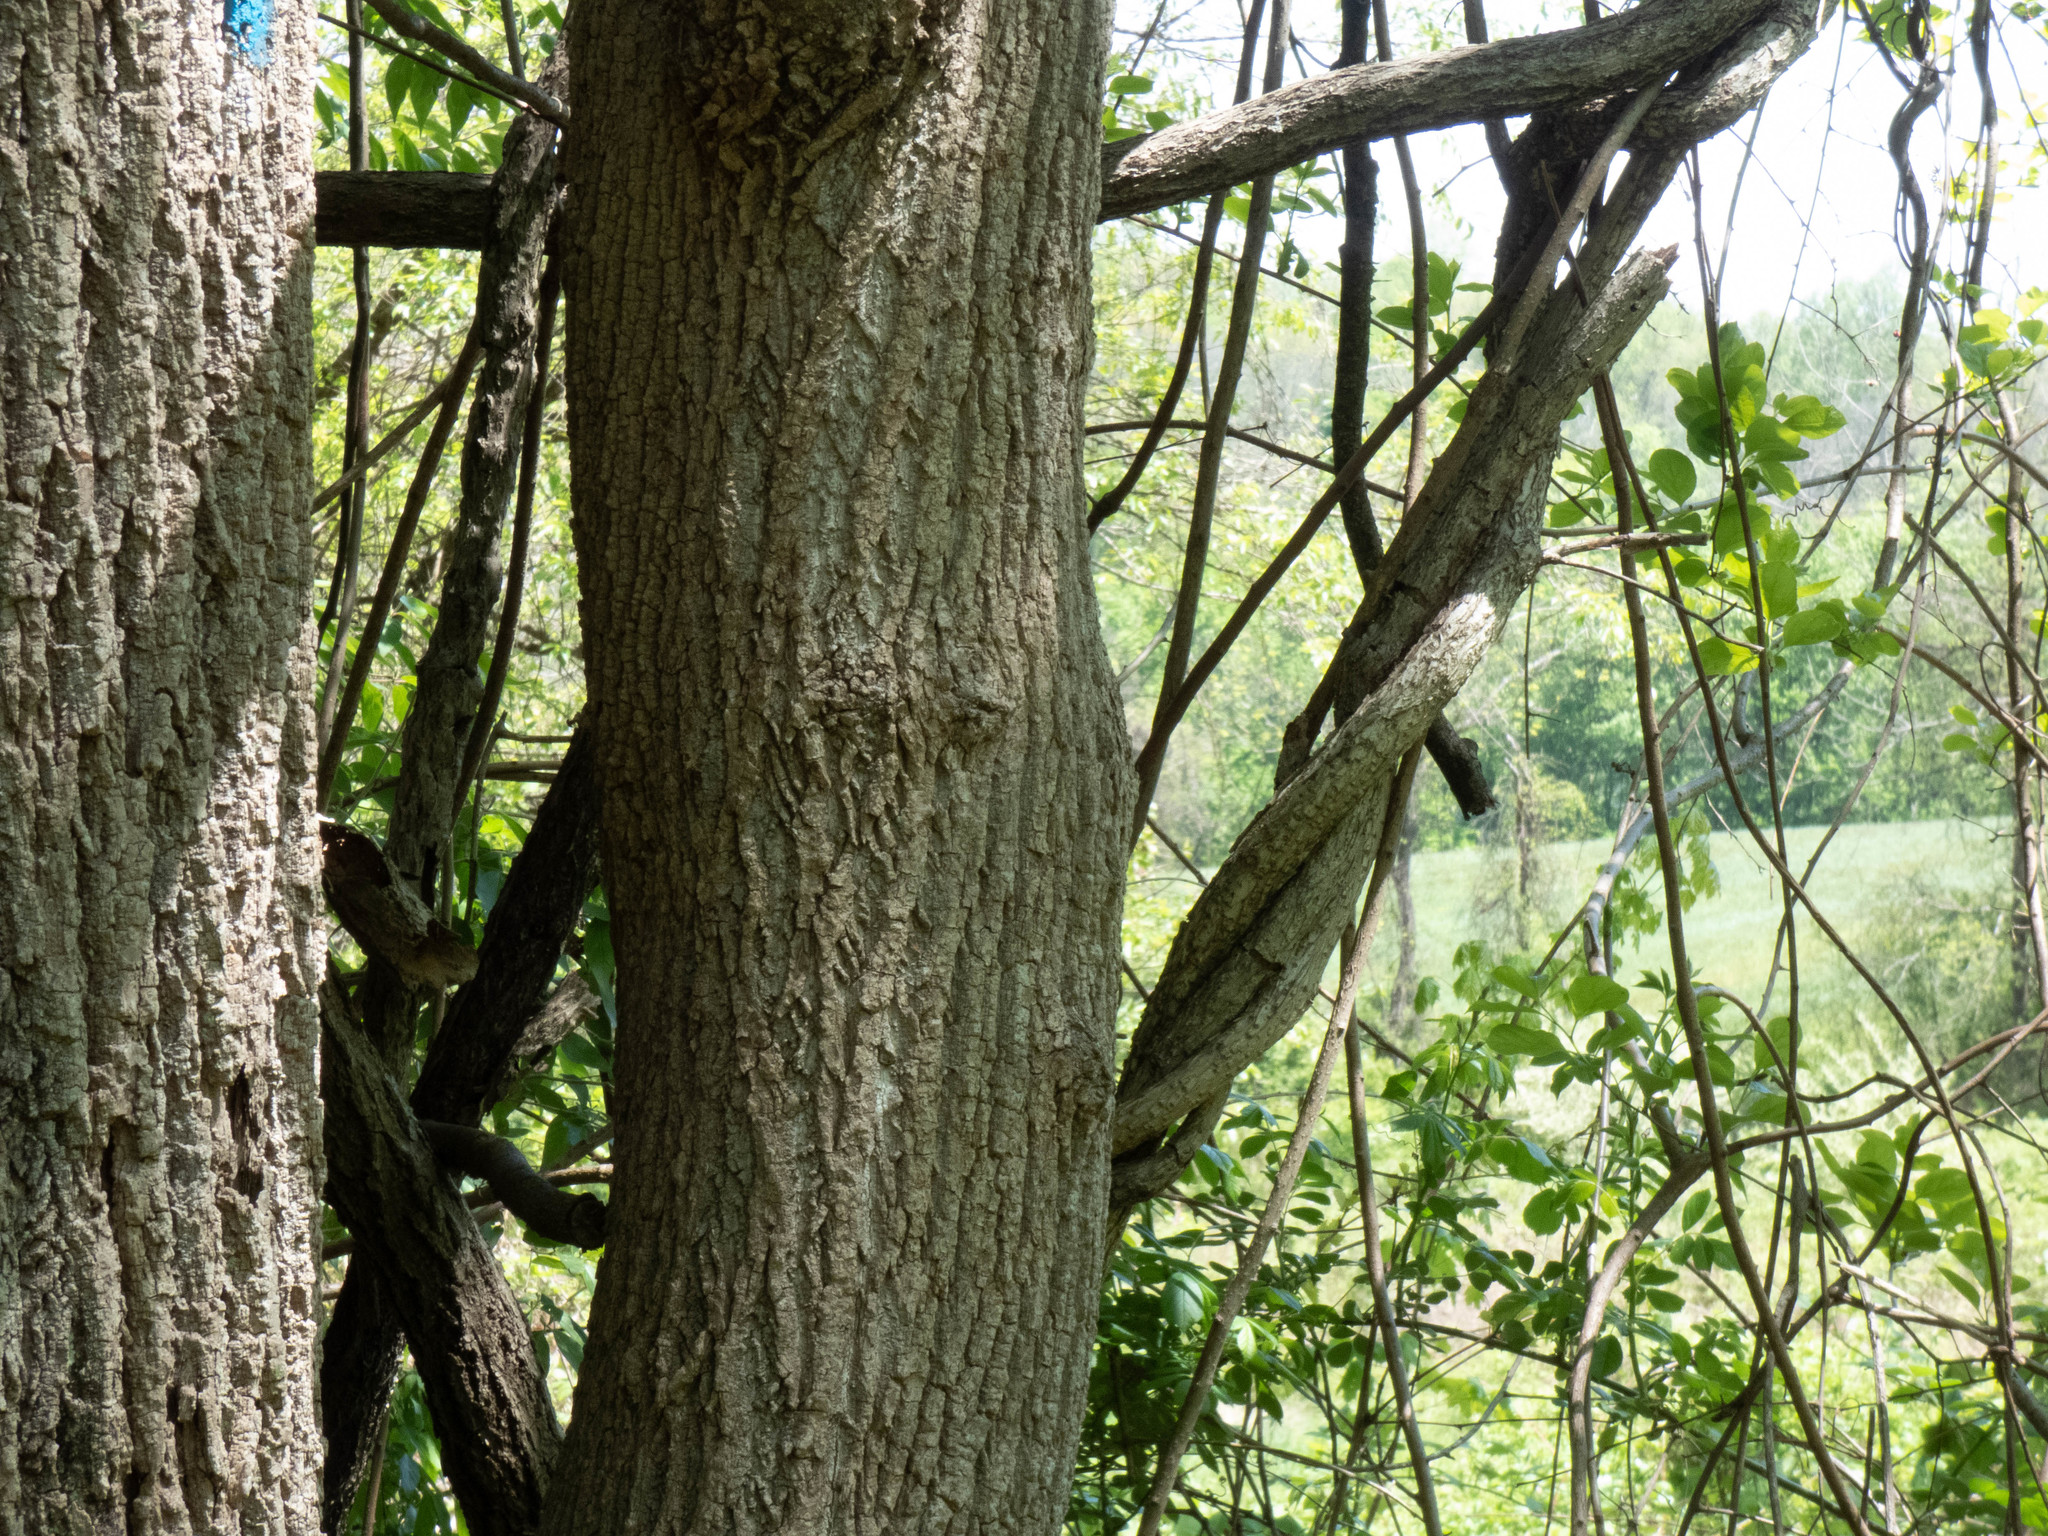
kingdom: Plantae
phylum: Tracheophyta
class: Magnoliopsida
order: Magnoliales
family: Magnoliaceae
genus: Liriodendron
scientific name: Liriodendron tulipifera
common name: Tulip tree
